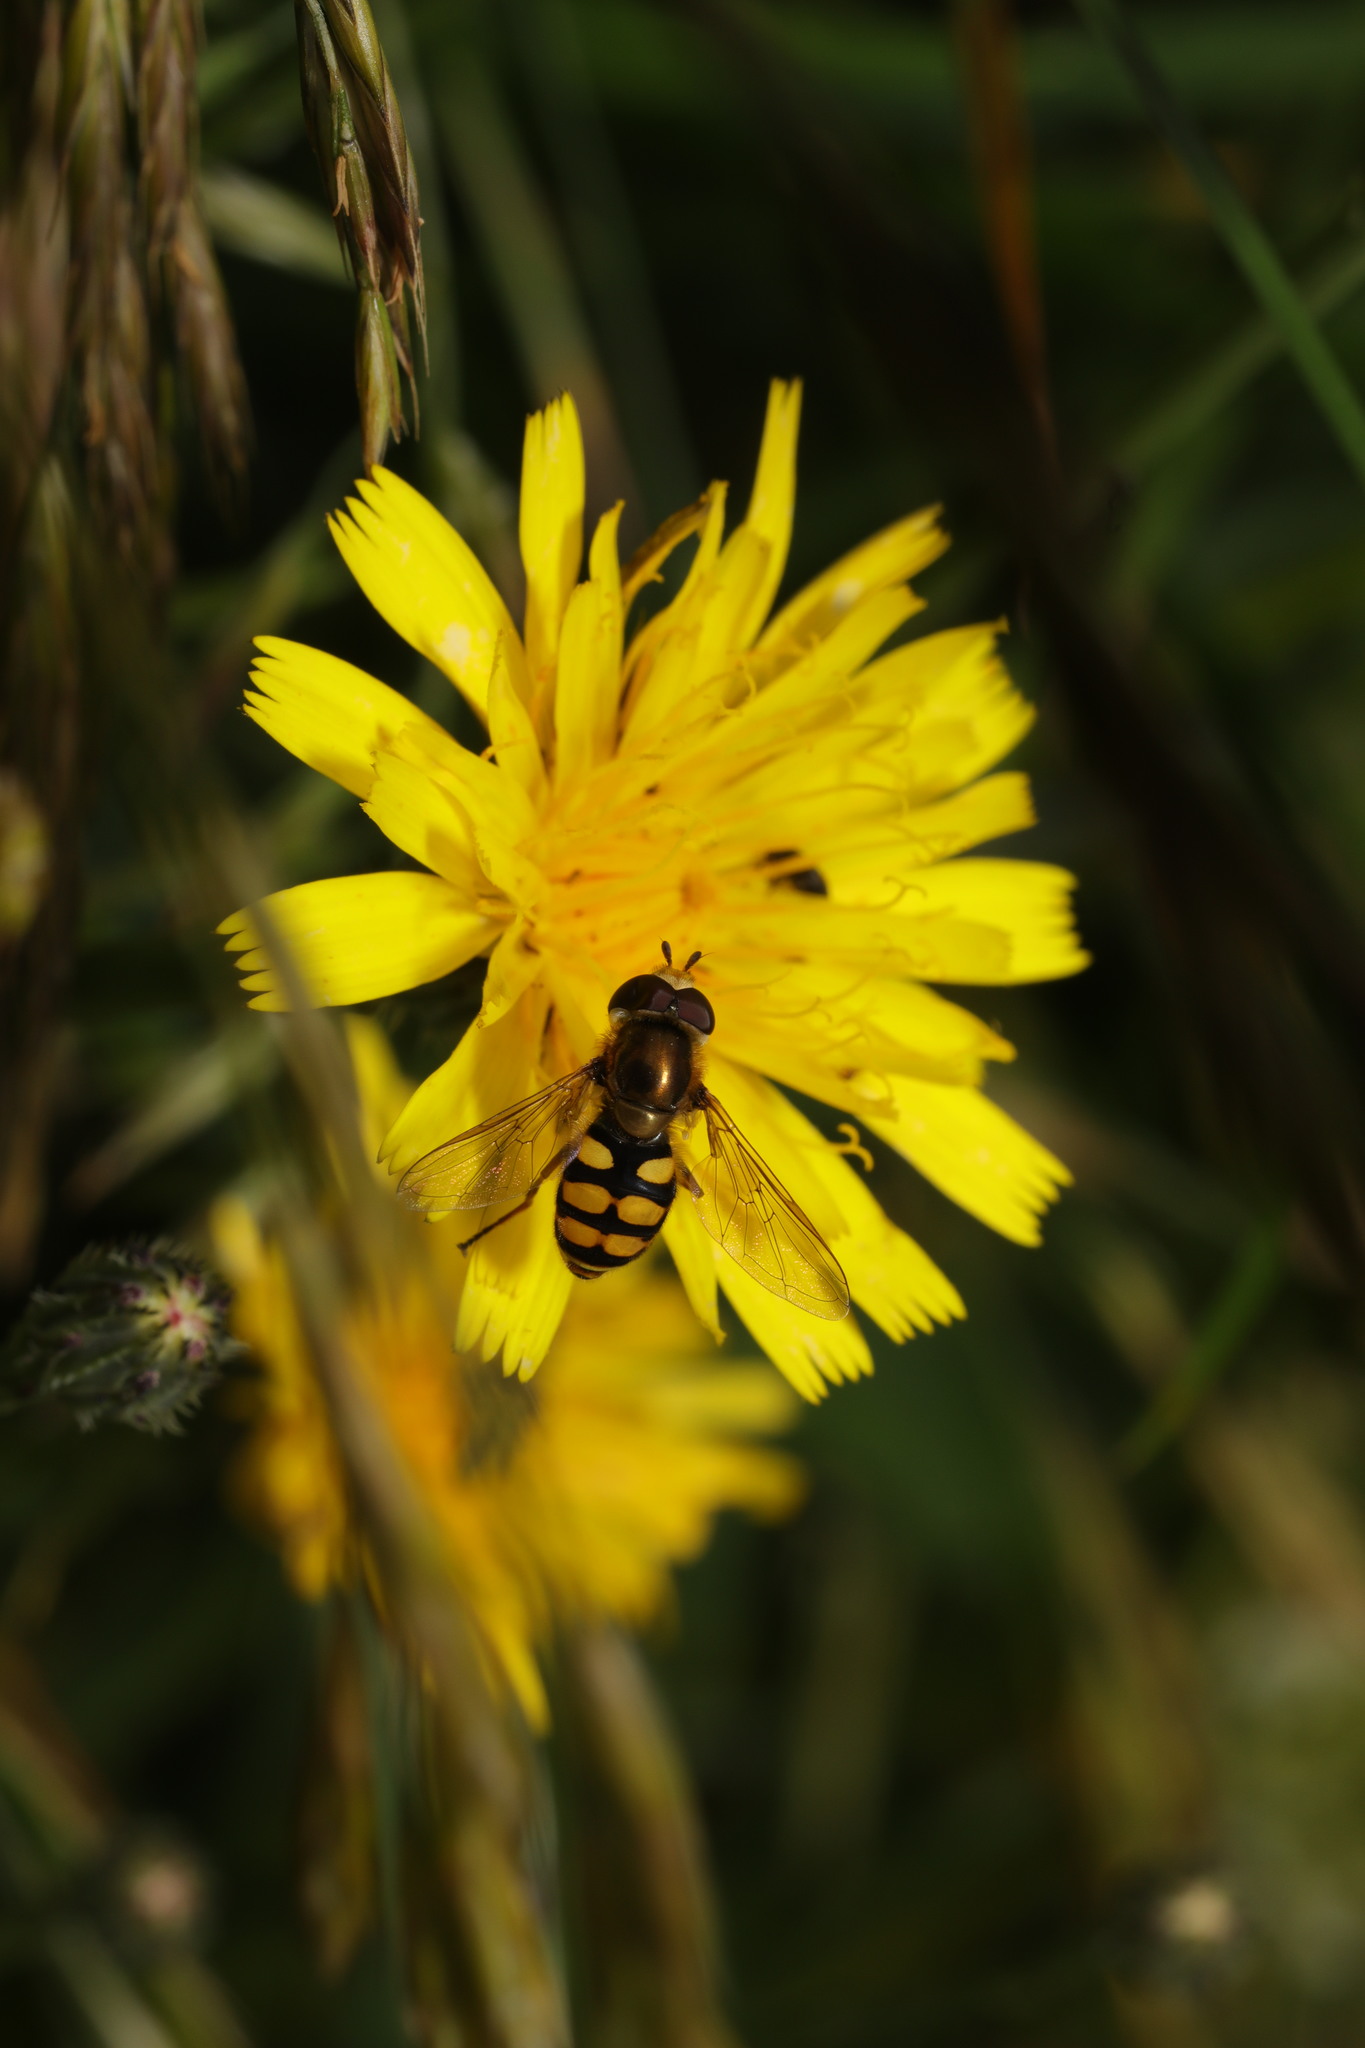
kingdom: Animalia
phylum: Arthropoda
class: Insecta
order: Diptera
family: Syrphidae
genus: Eupeodes
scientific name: Eupeodes corollae
